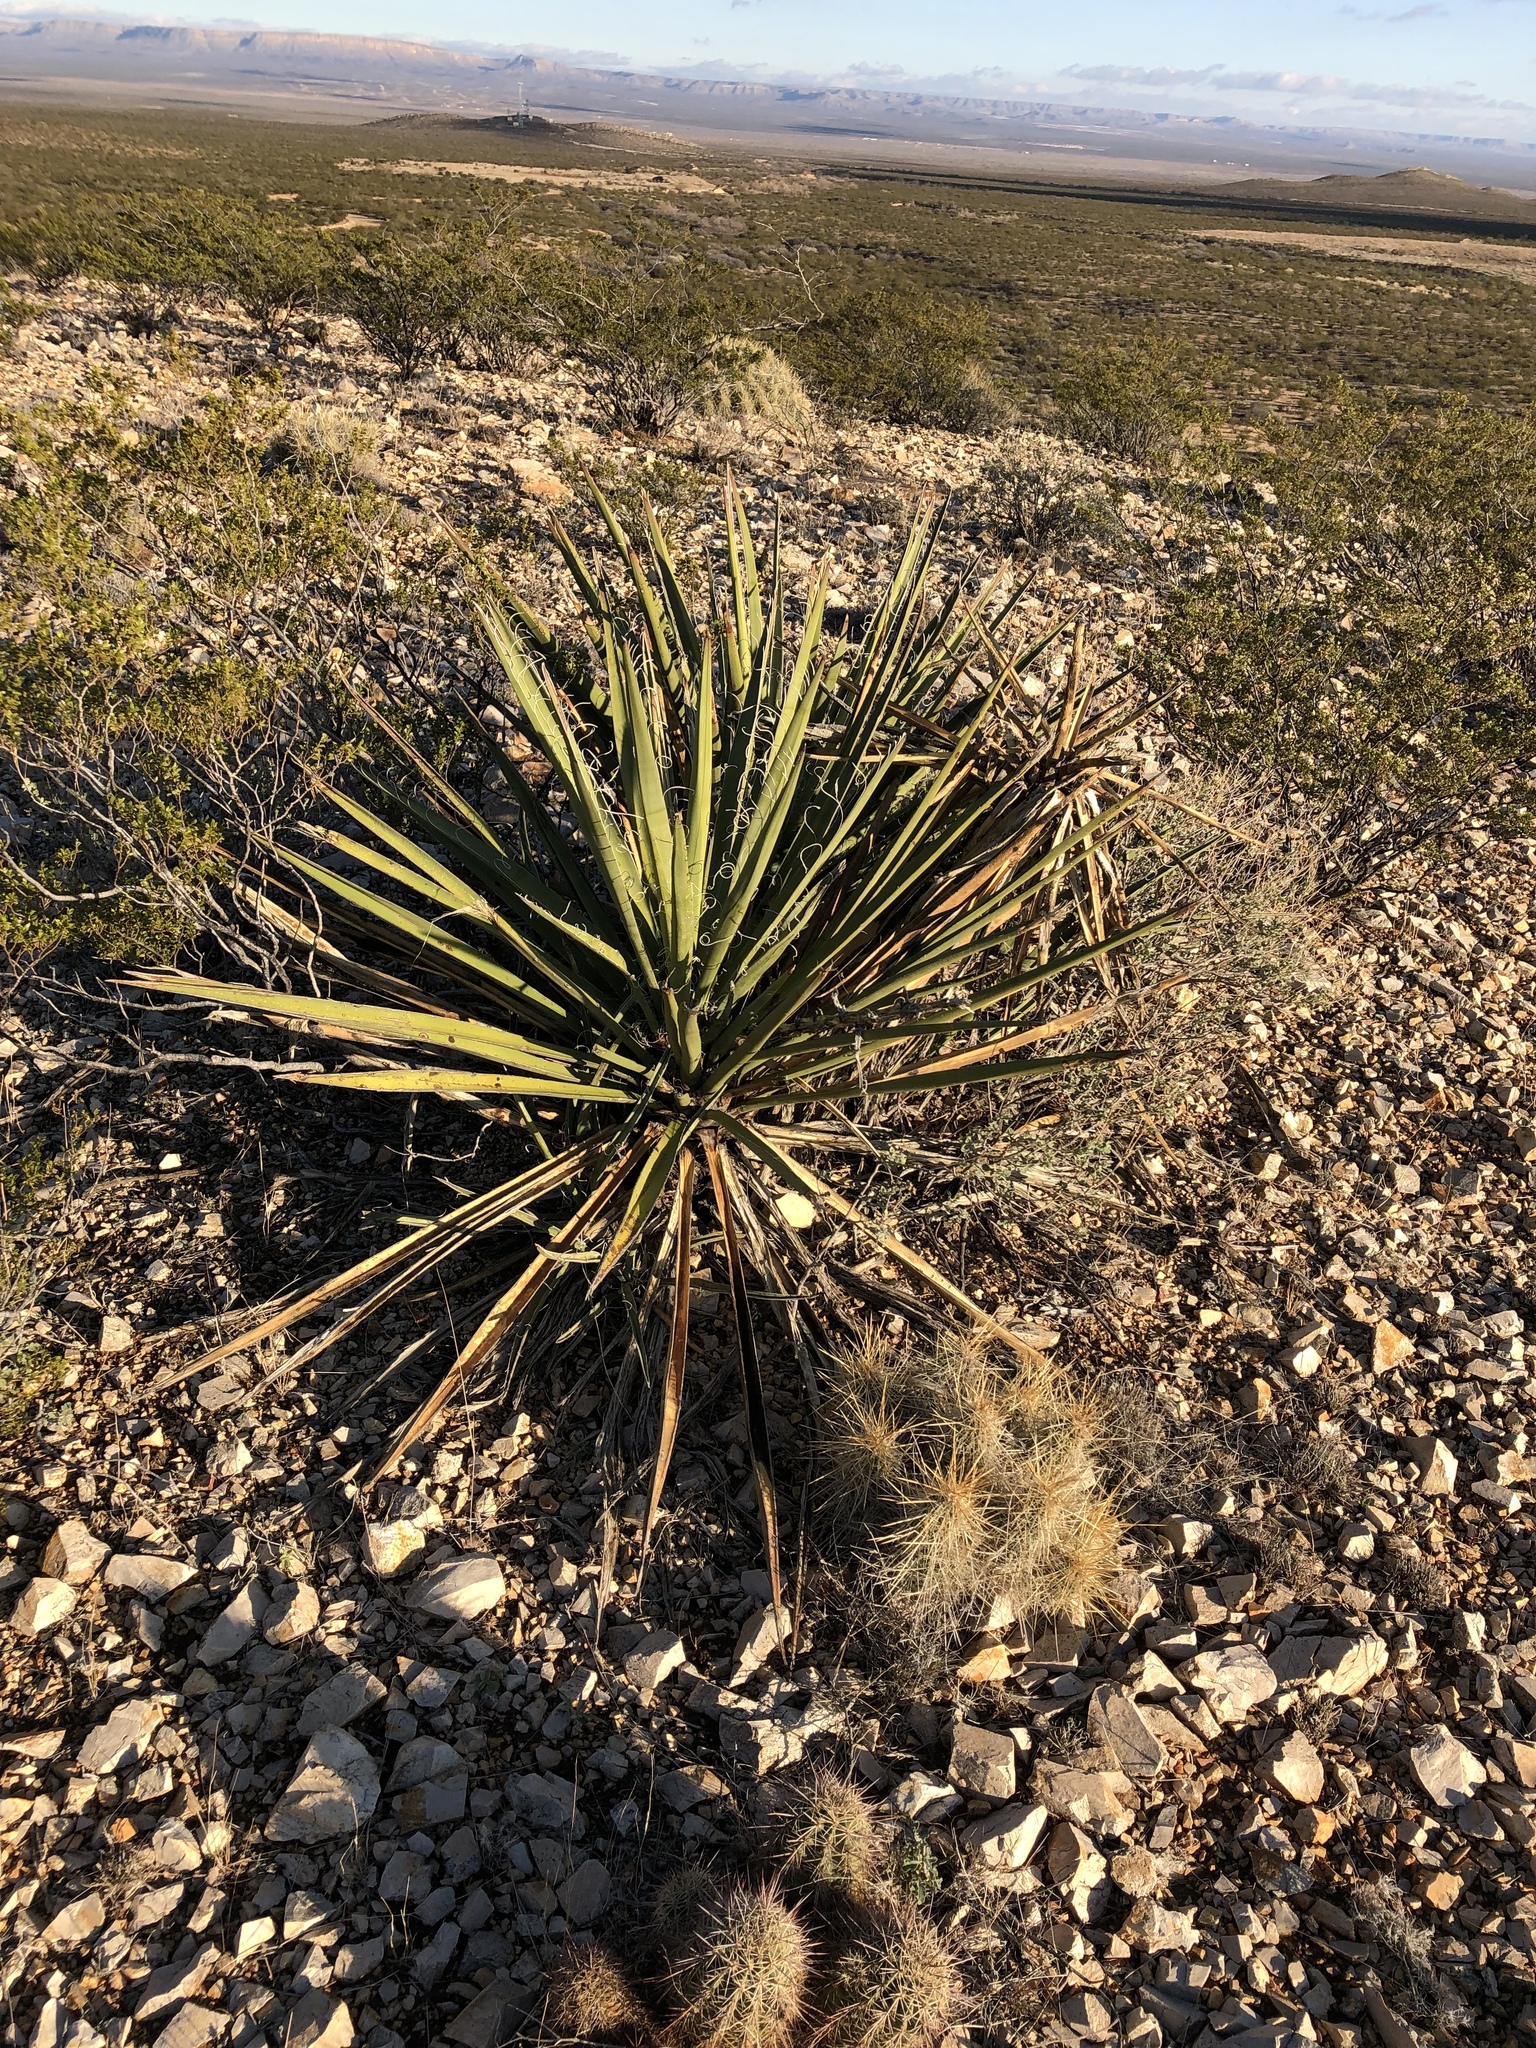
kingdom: Plantae
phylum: Tracheophyta
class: Liliopsida
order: Asparagales
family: Asparagaceae
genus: Yucca
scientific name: Yucca baccata
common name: Banana yucca
